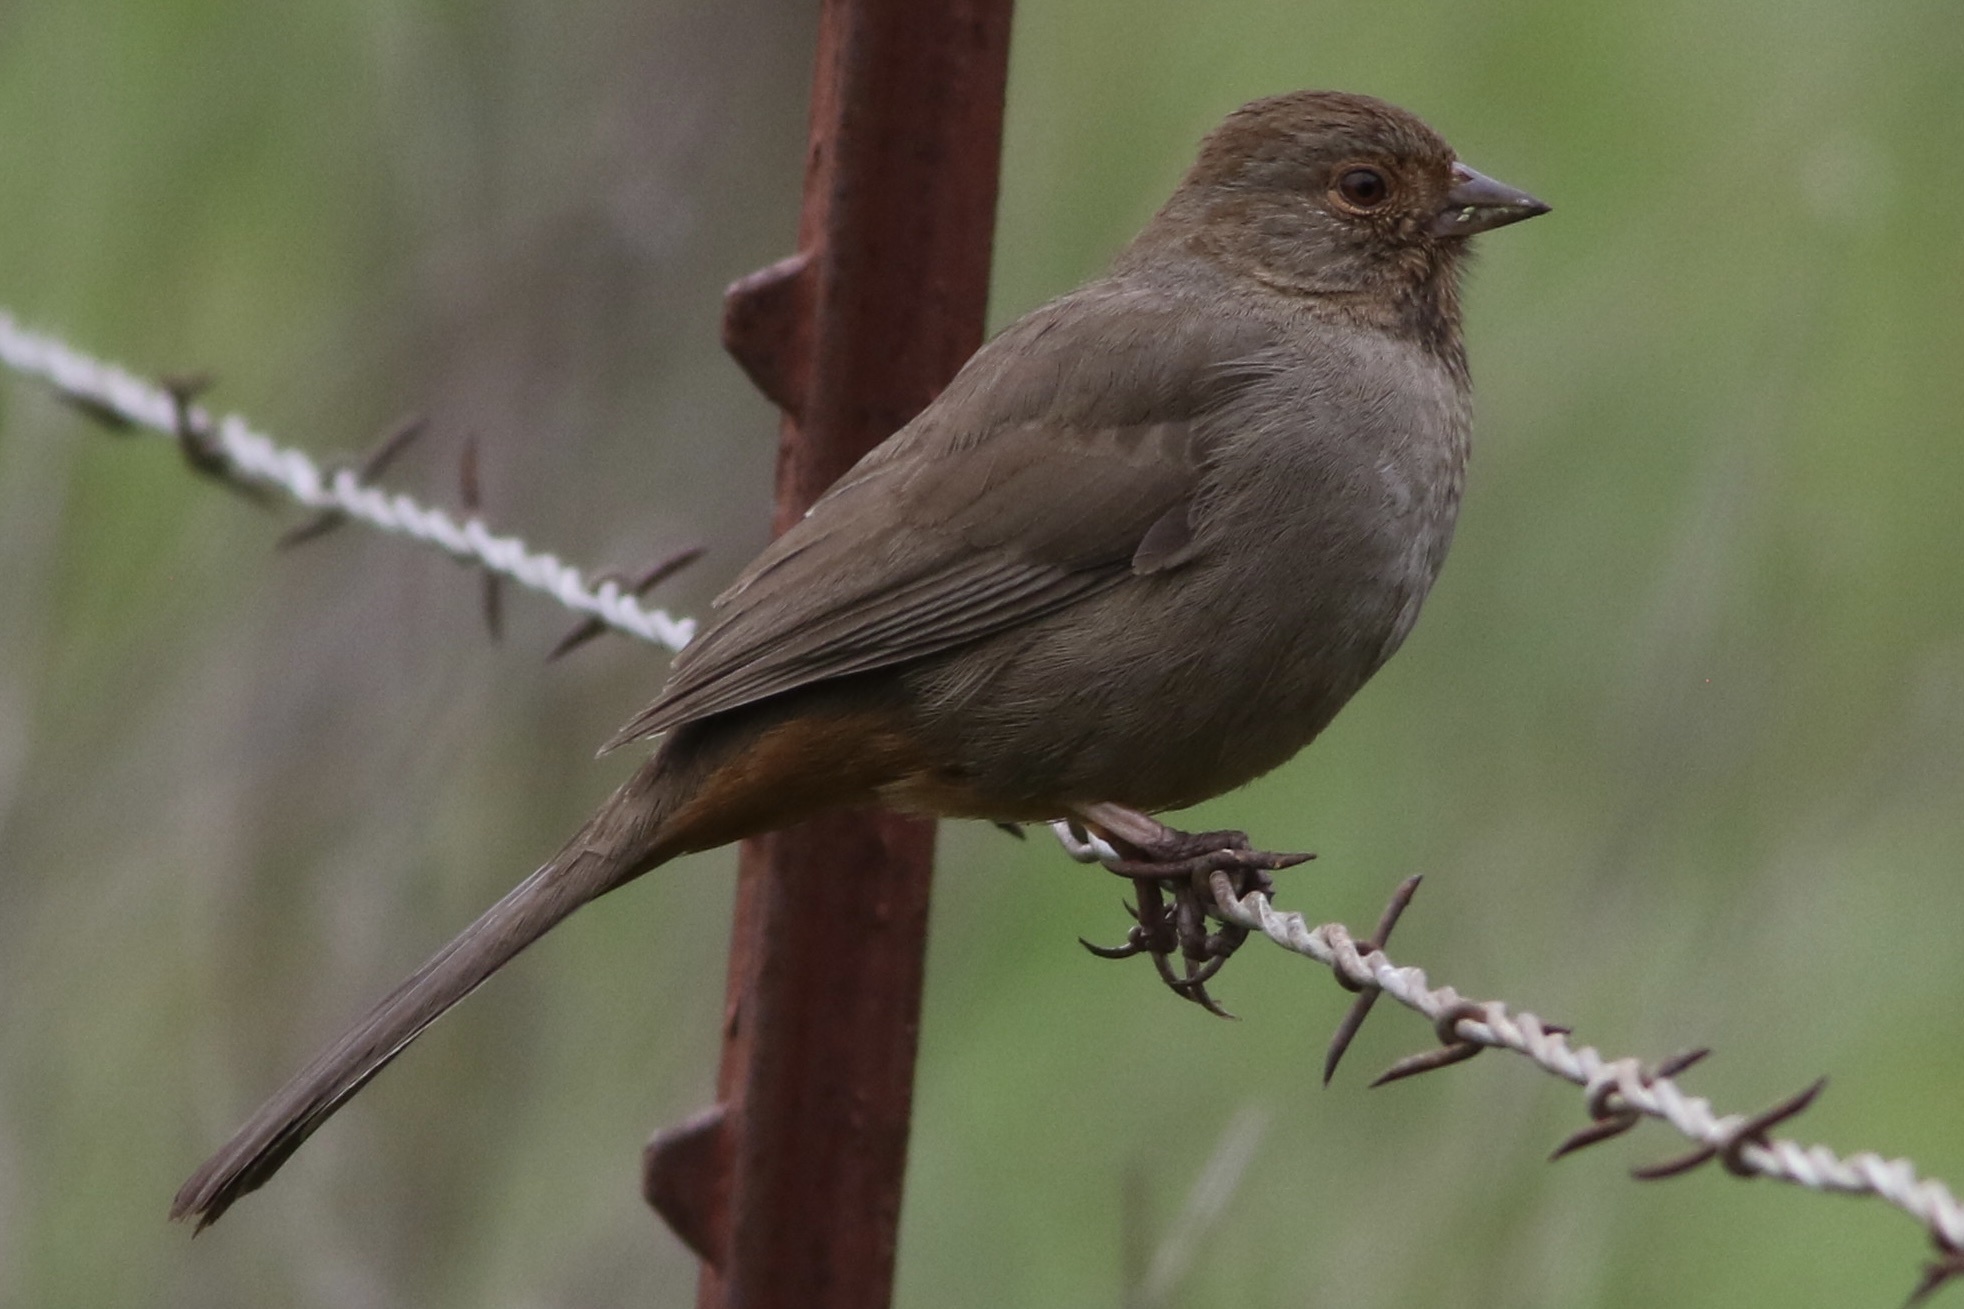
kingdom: Animalia
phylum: Chordata
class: Aves
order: Passeriformes
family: Passerellidae
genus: Melozone
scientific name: Melozone crissalis
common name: California towhee
